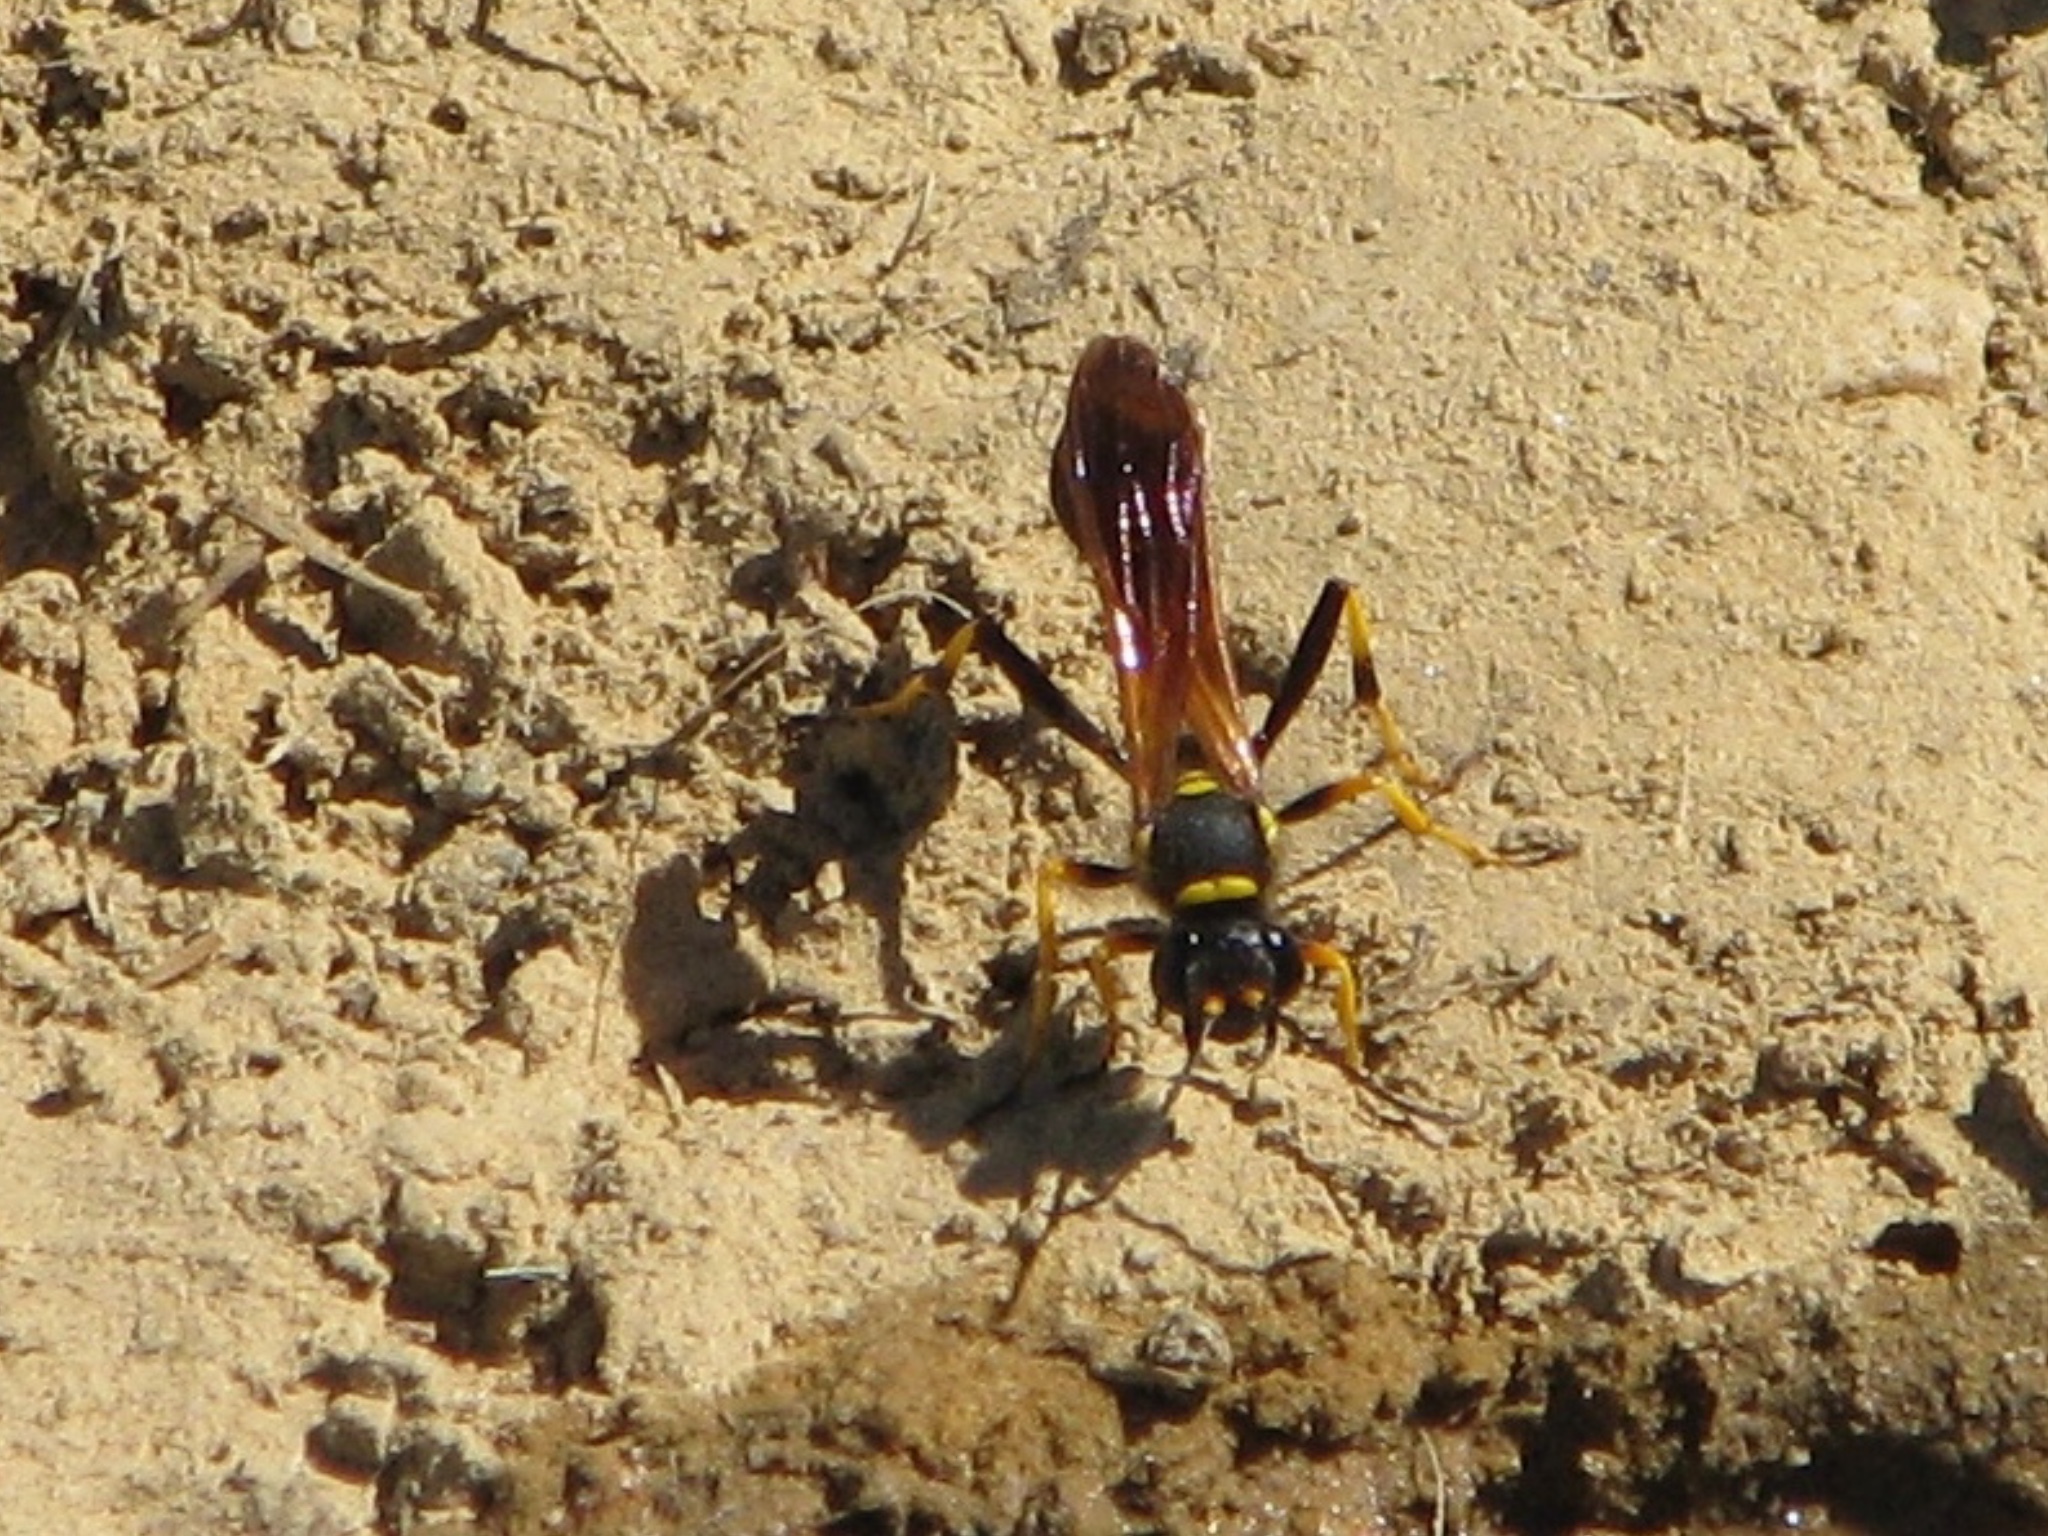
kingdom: Animalia
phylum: Arthropoda
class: Insecta
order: Hymenoptera
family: Sphecidae
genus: Sceliphron
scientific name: Sceliphron caementarium
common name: Mud dauber
